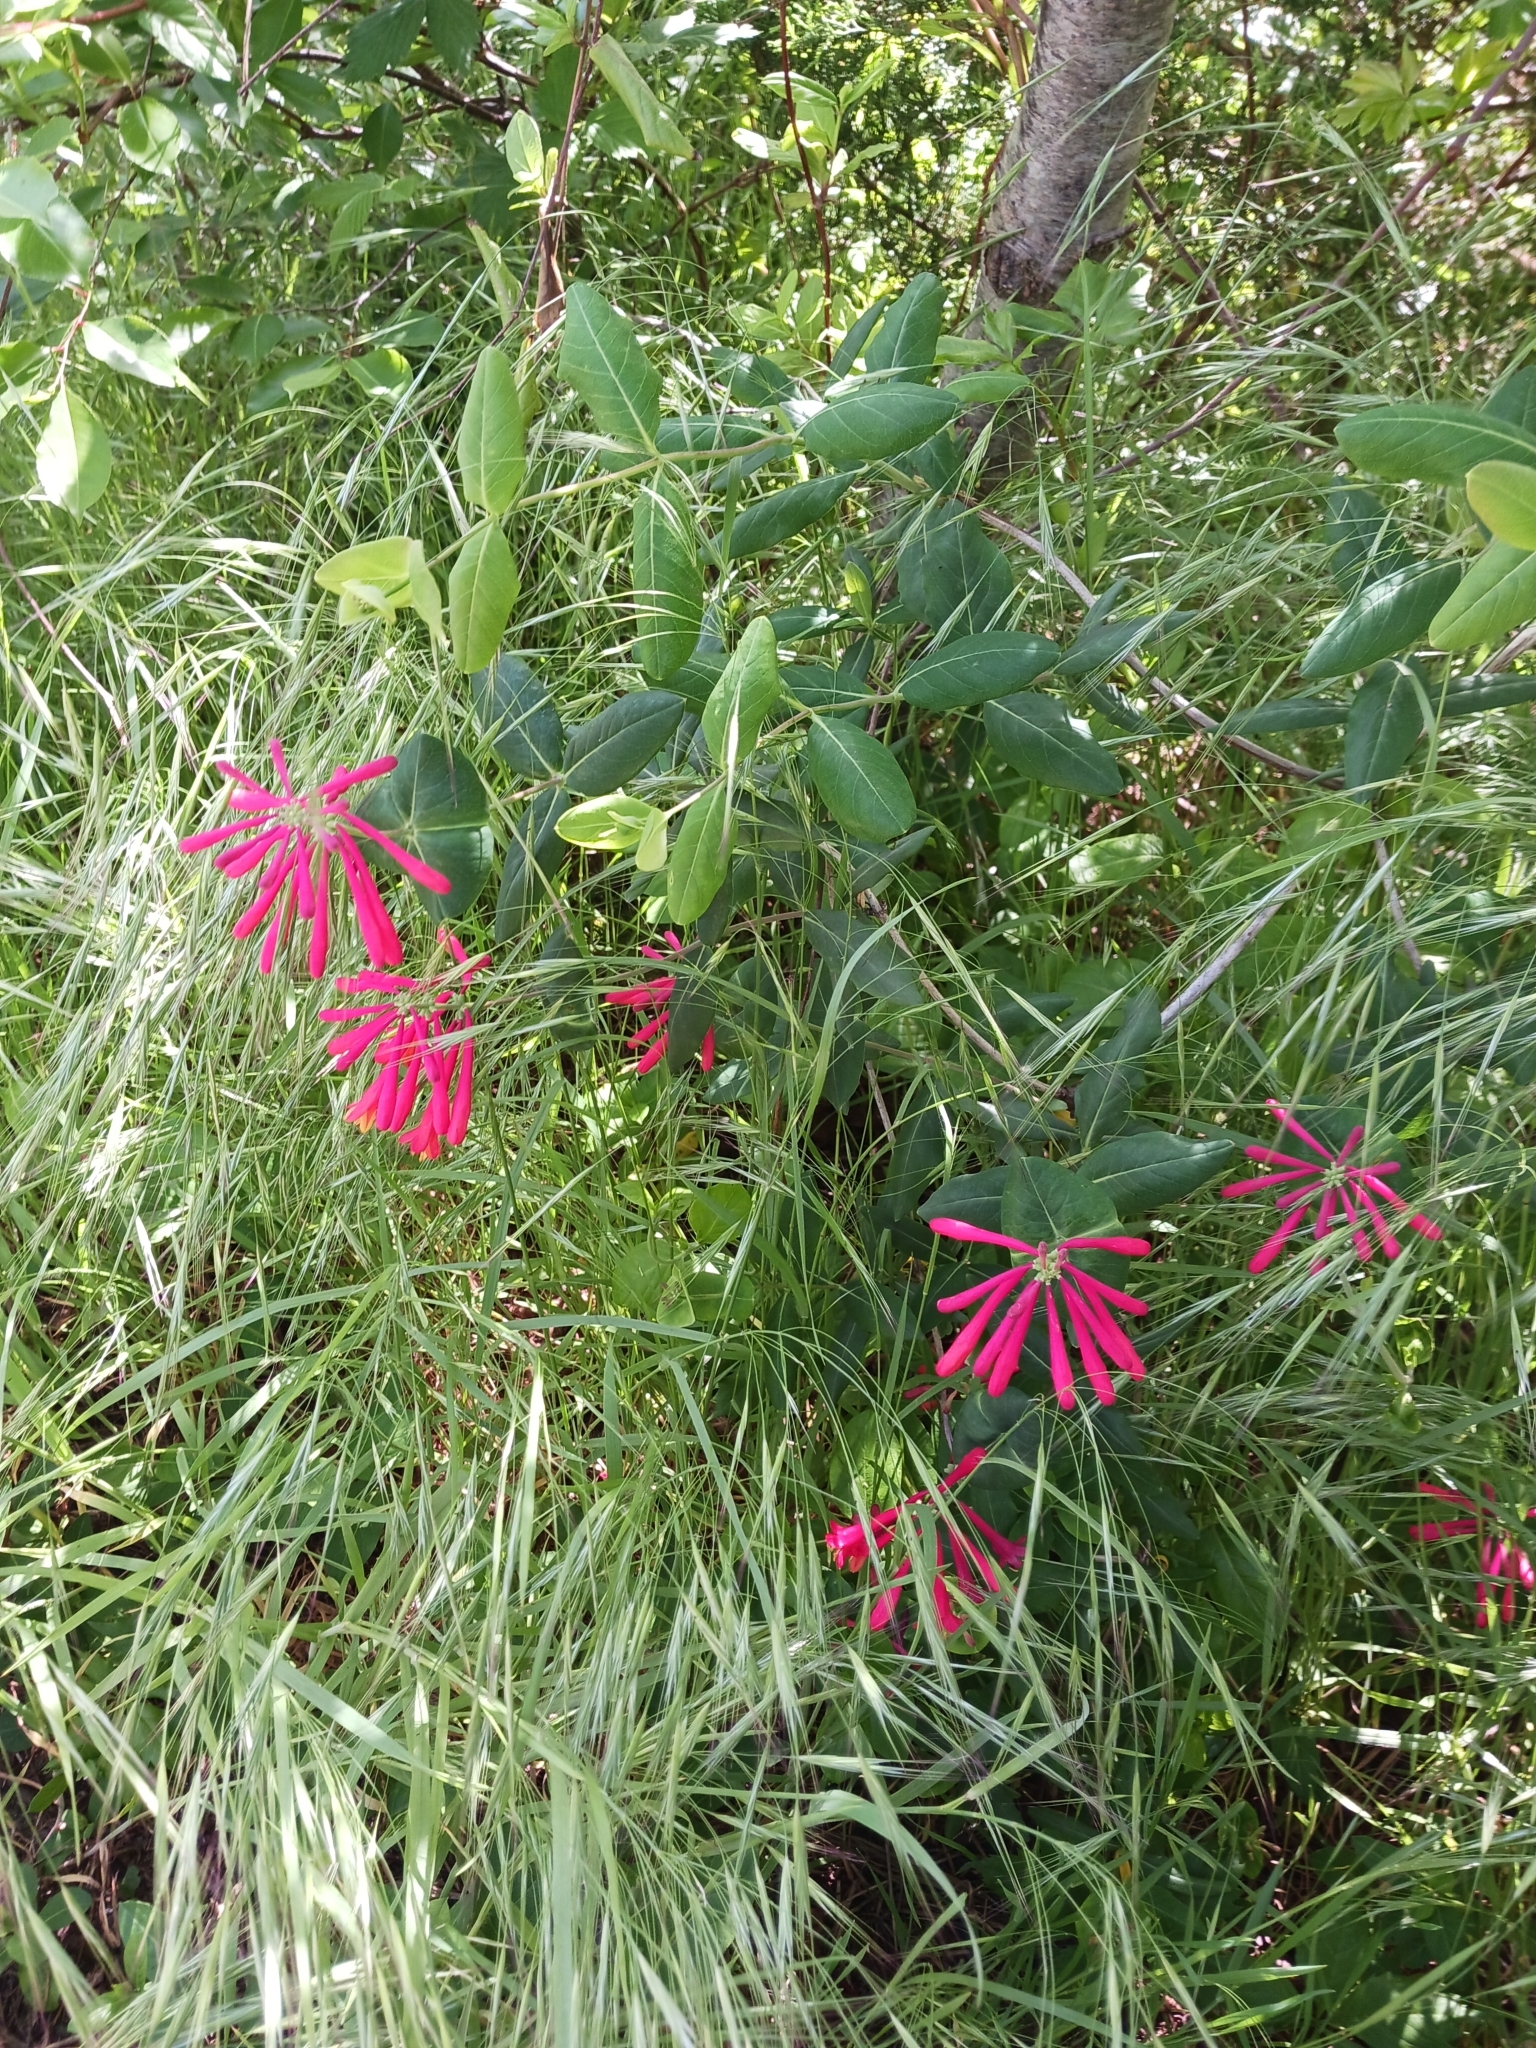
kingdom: Plantae
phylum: Tracheophyta
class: Magnoliopsida
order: Dipsacales
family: Caprifoliaceae
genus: Lonicera
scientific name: Lonicera sempervirens
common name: Coral honeysuckle
